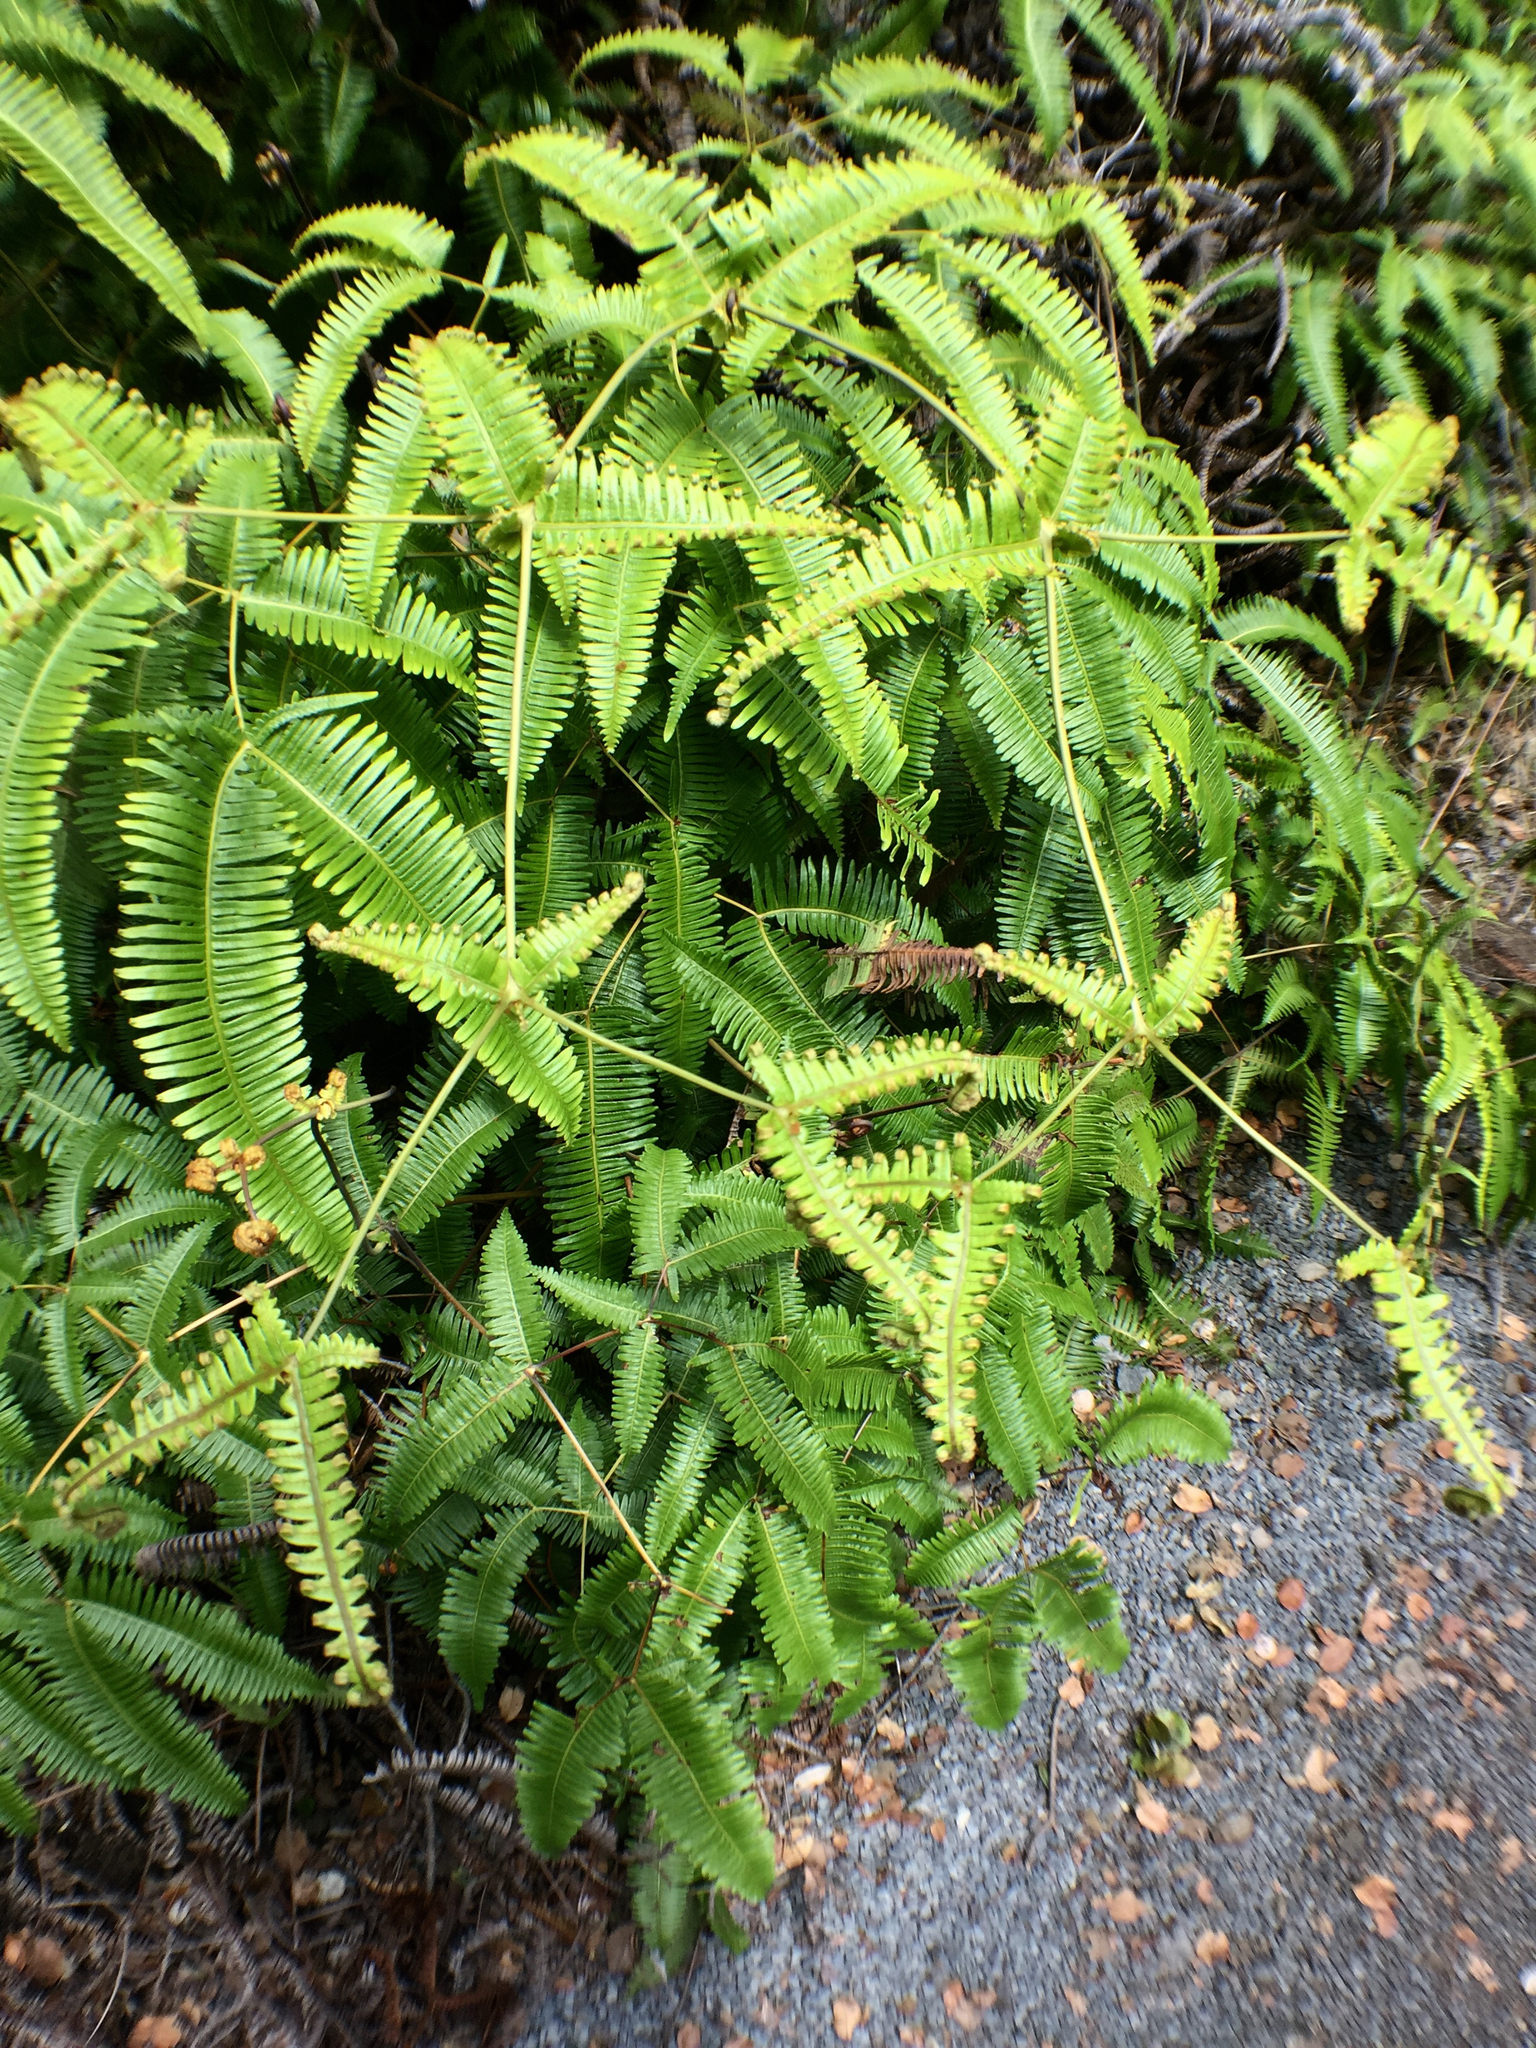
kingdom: Plantae
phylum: Tracheophyta
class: Polypodiopsida
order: Gleicheniales
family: Gleicheniaceae
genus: Dicranopteris
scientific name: Dicranopteris linearis
